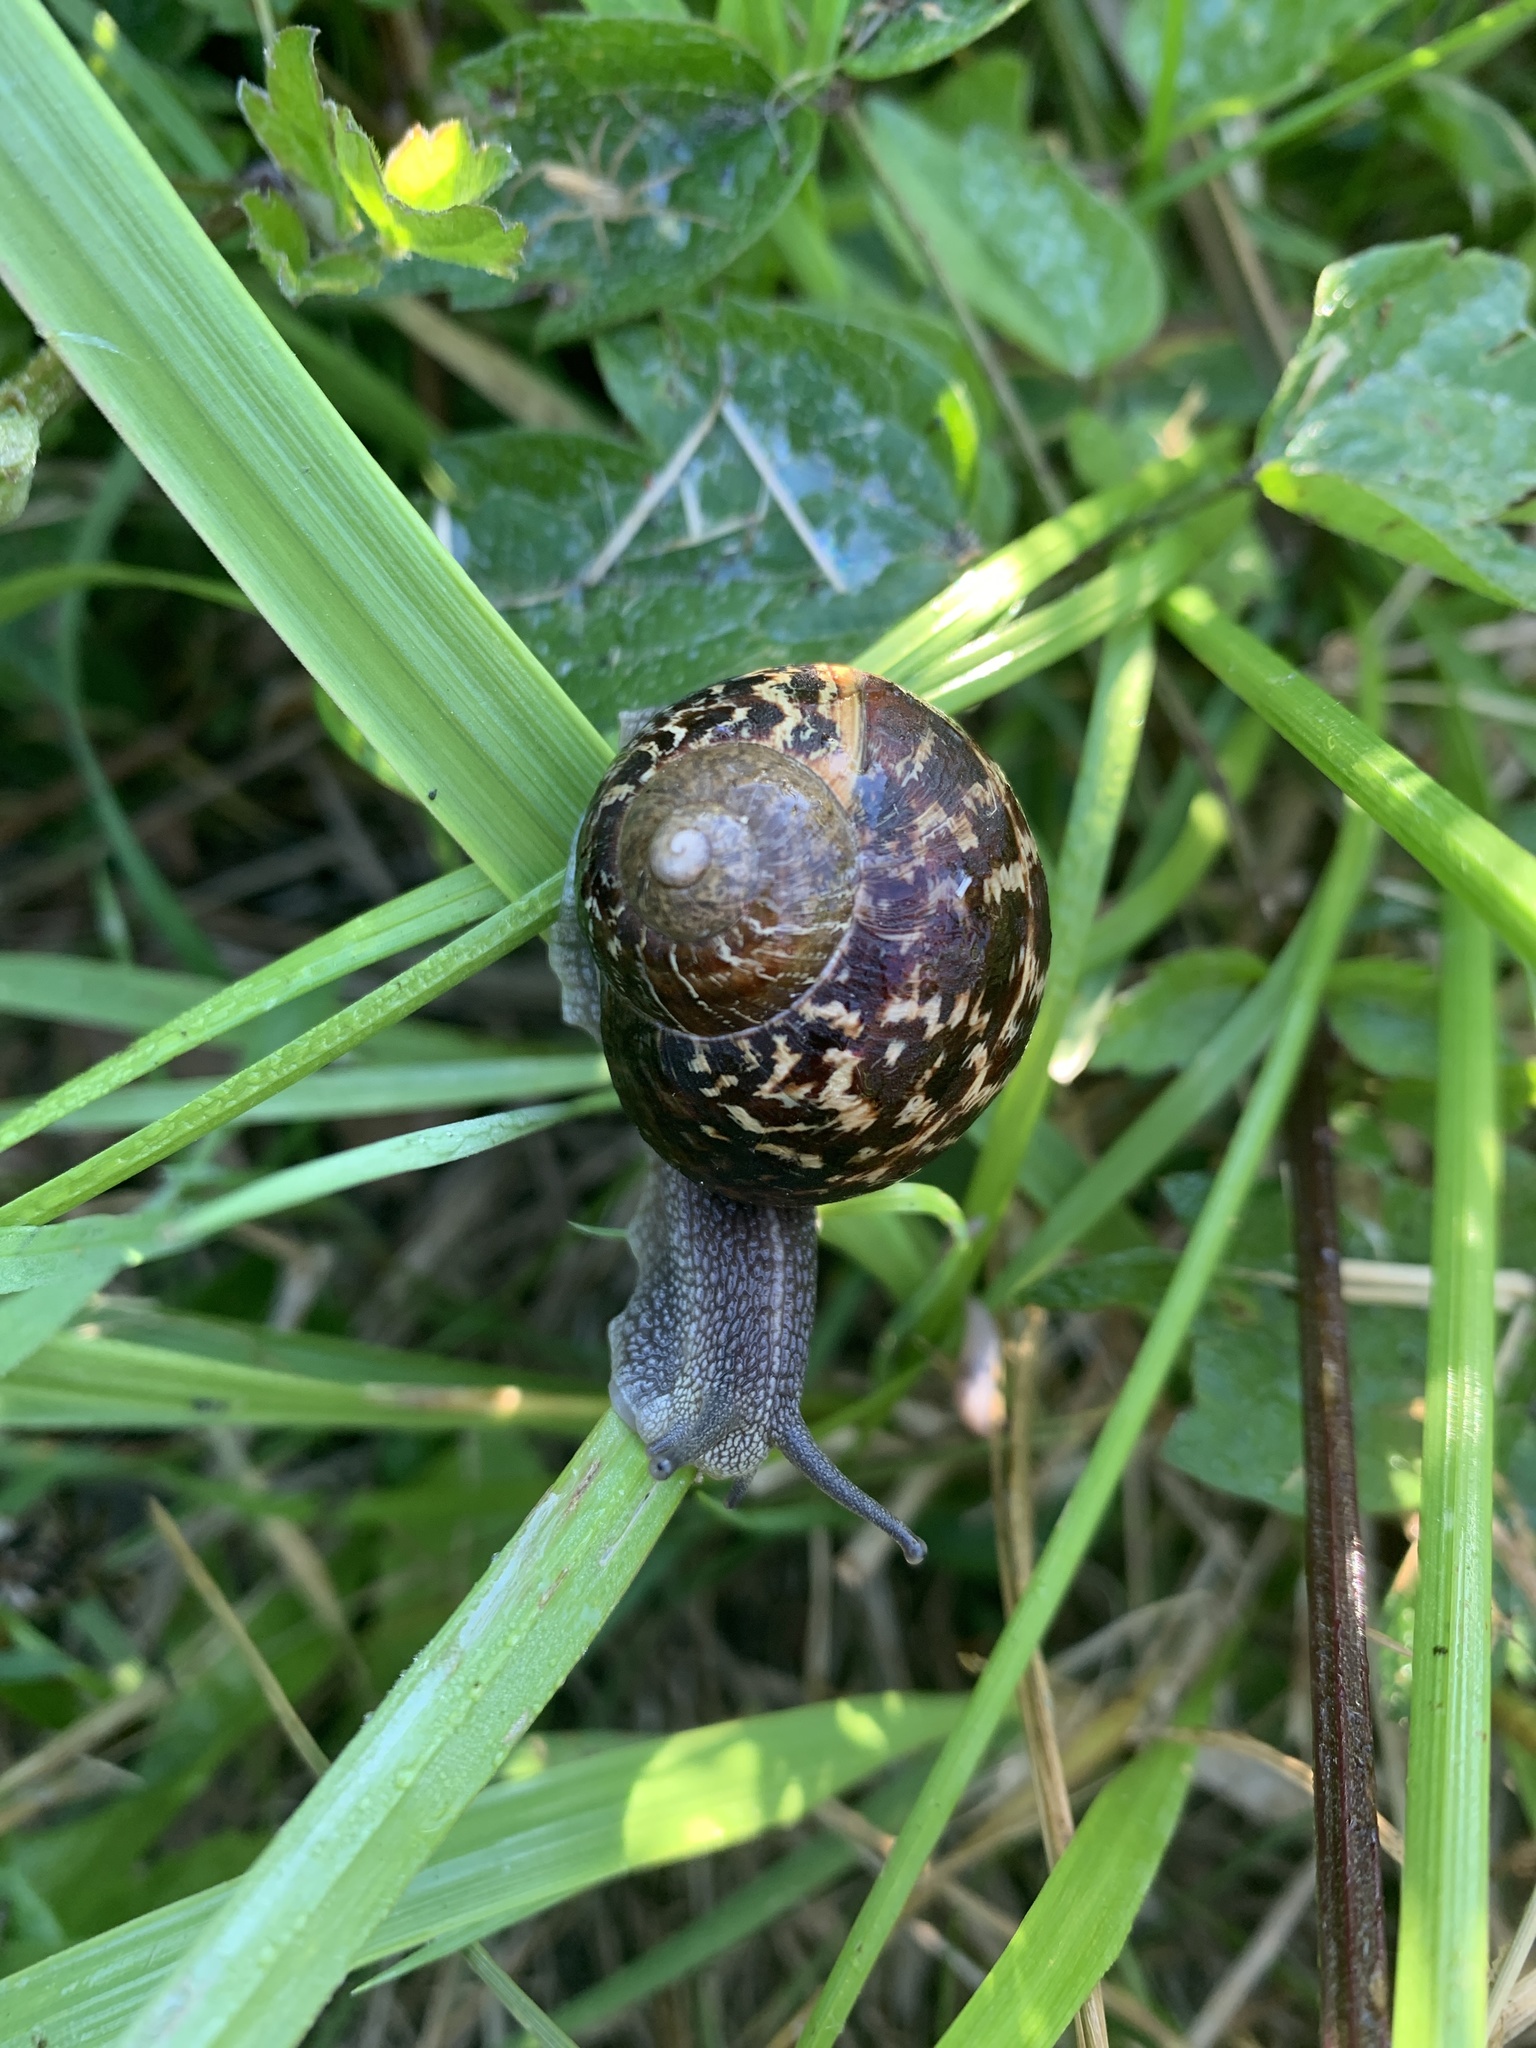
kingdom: Animalia
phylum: Mollusca
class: Gastropoda
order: Stylommatophora
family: Helicidae
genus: Cornu
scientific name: Cornu aspersum
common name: Brown garden snail
